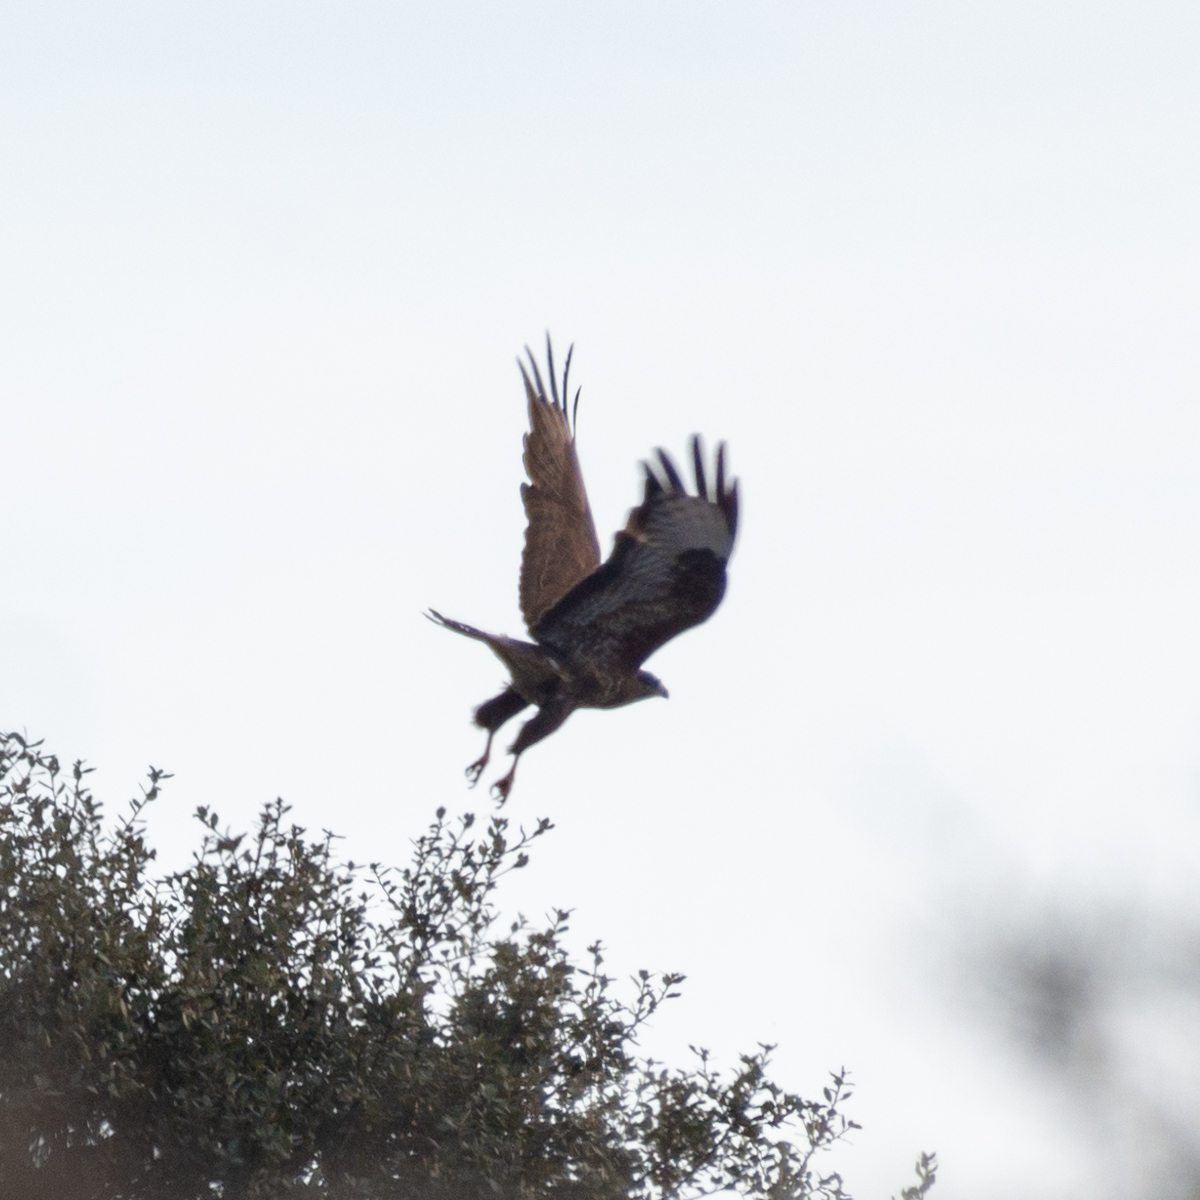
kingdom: Animalia
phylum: Chordata
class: Aves
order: Accipitriformes
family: Accipitridae
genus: Buteo
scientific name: Buteo buteo
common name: Common buzzard
